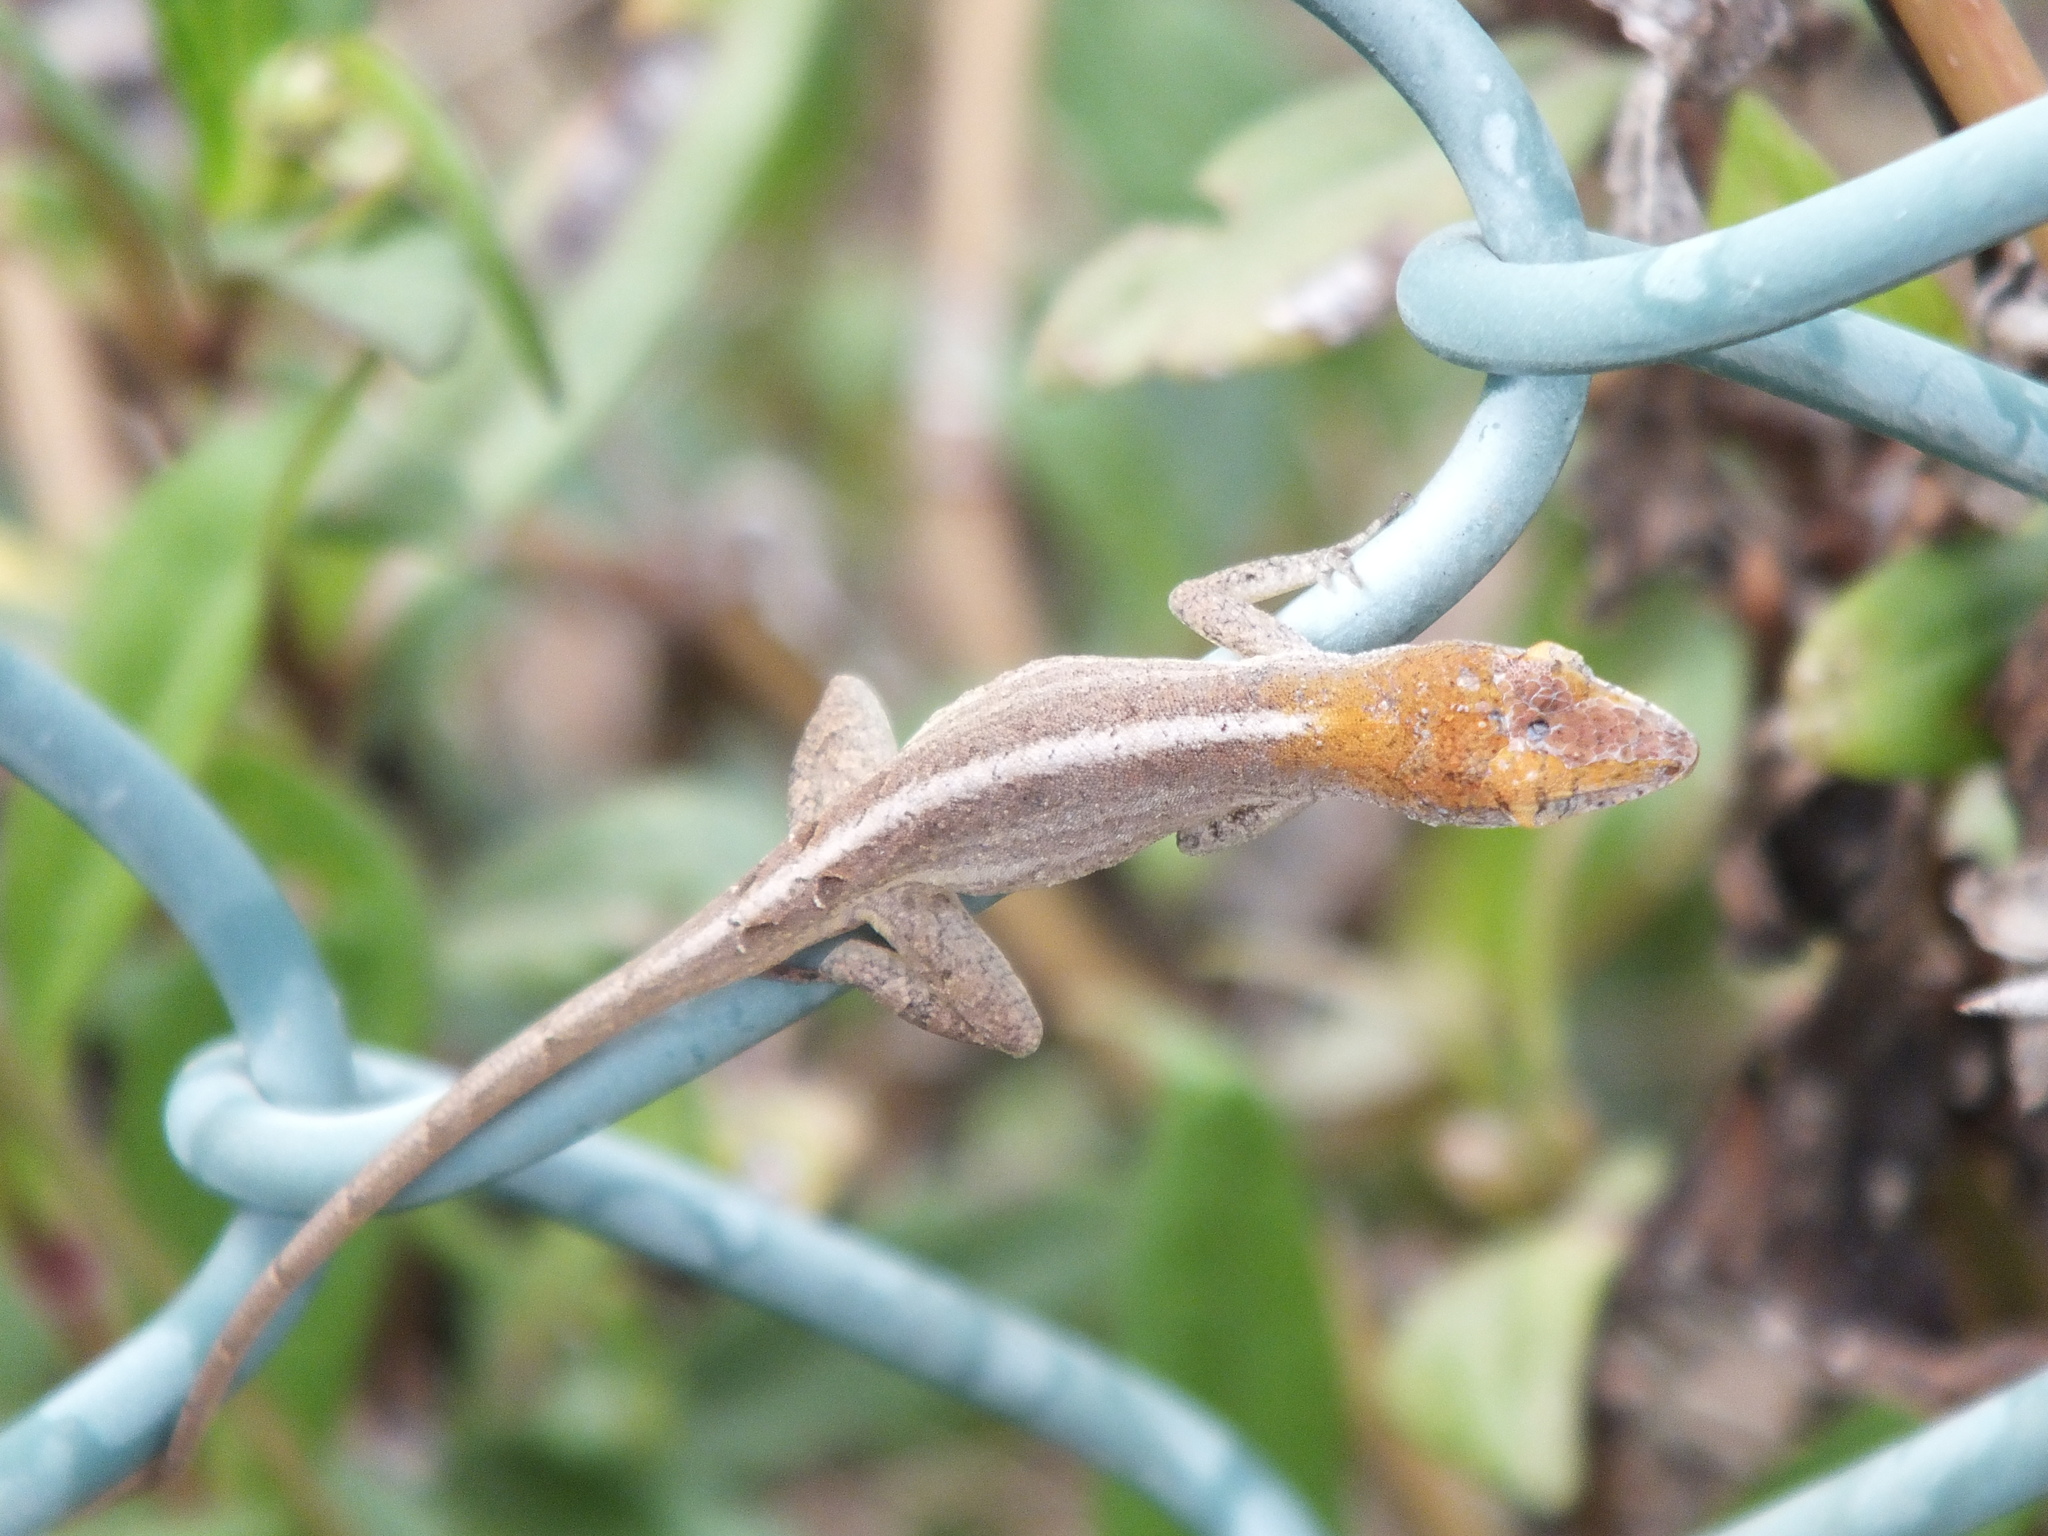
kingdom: Animalia
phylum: Chordata
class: Squamata
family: Dactyloidae
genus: Anolis
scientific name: Anolis sagrei
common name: Brown anole
